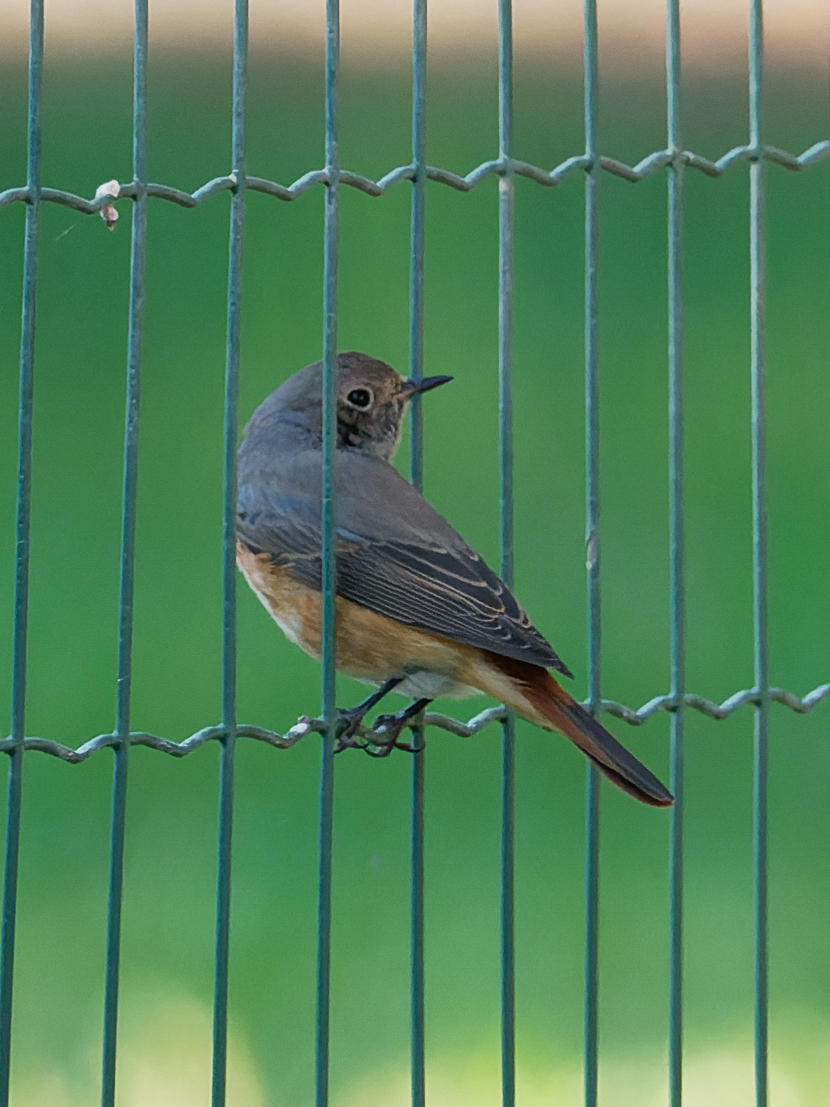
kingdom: Animalia
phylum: Chordata
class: Aves
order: Passeriformes
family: Muscicapidae
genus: Phoenicurus
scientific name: Phoenicurus phoenicurus
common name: Common redstart
